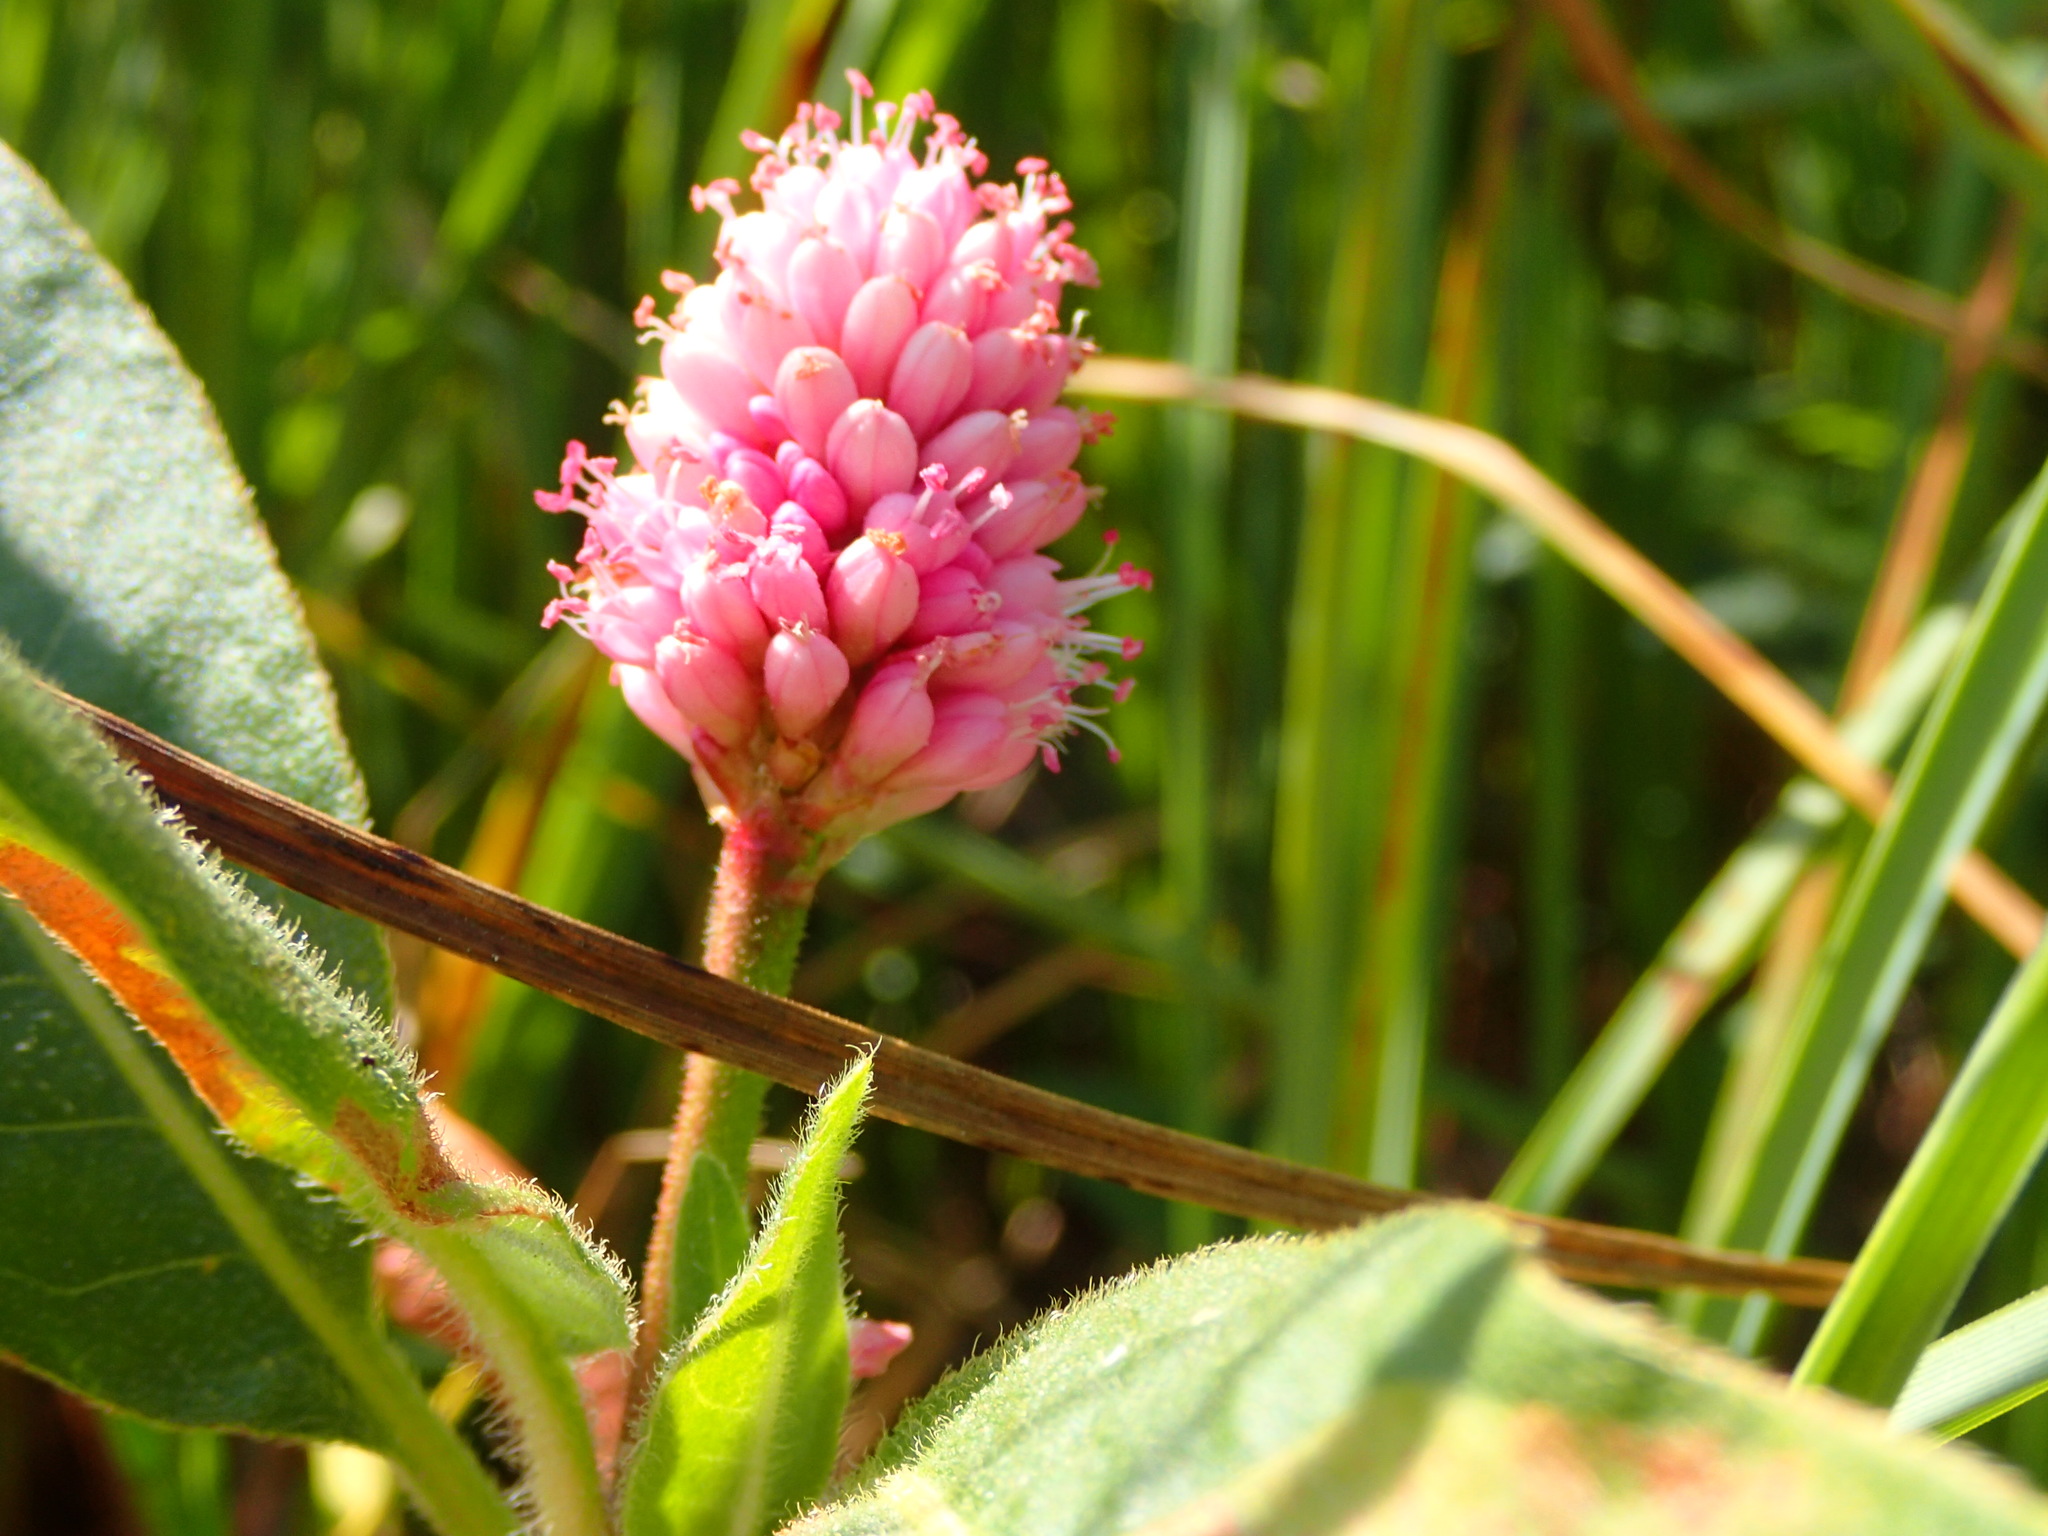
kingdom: Plantae
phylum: Tracheophyta
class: Magnoliopsida
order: Caryophyllales
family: Polygonaceae
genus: Persicaria
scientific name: Persicaria amphibia
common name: Amphibious bistort
